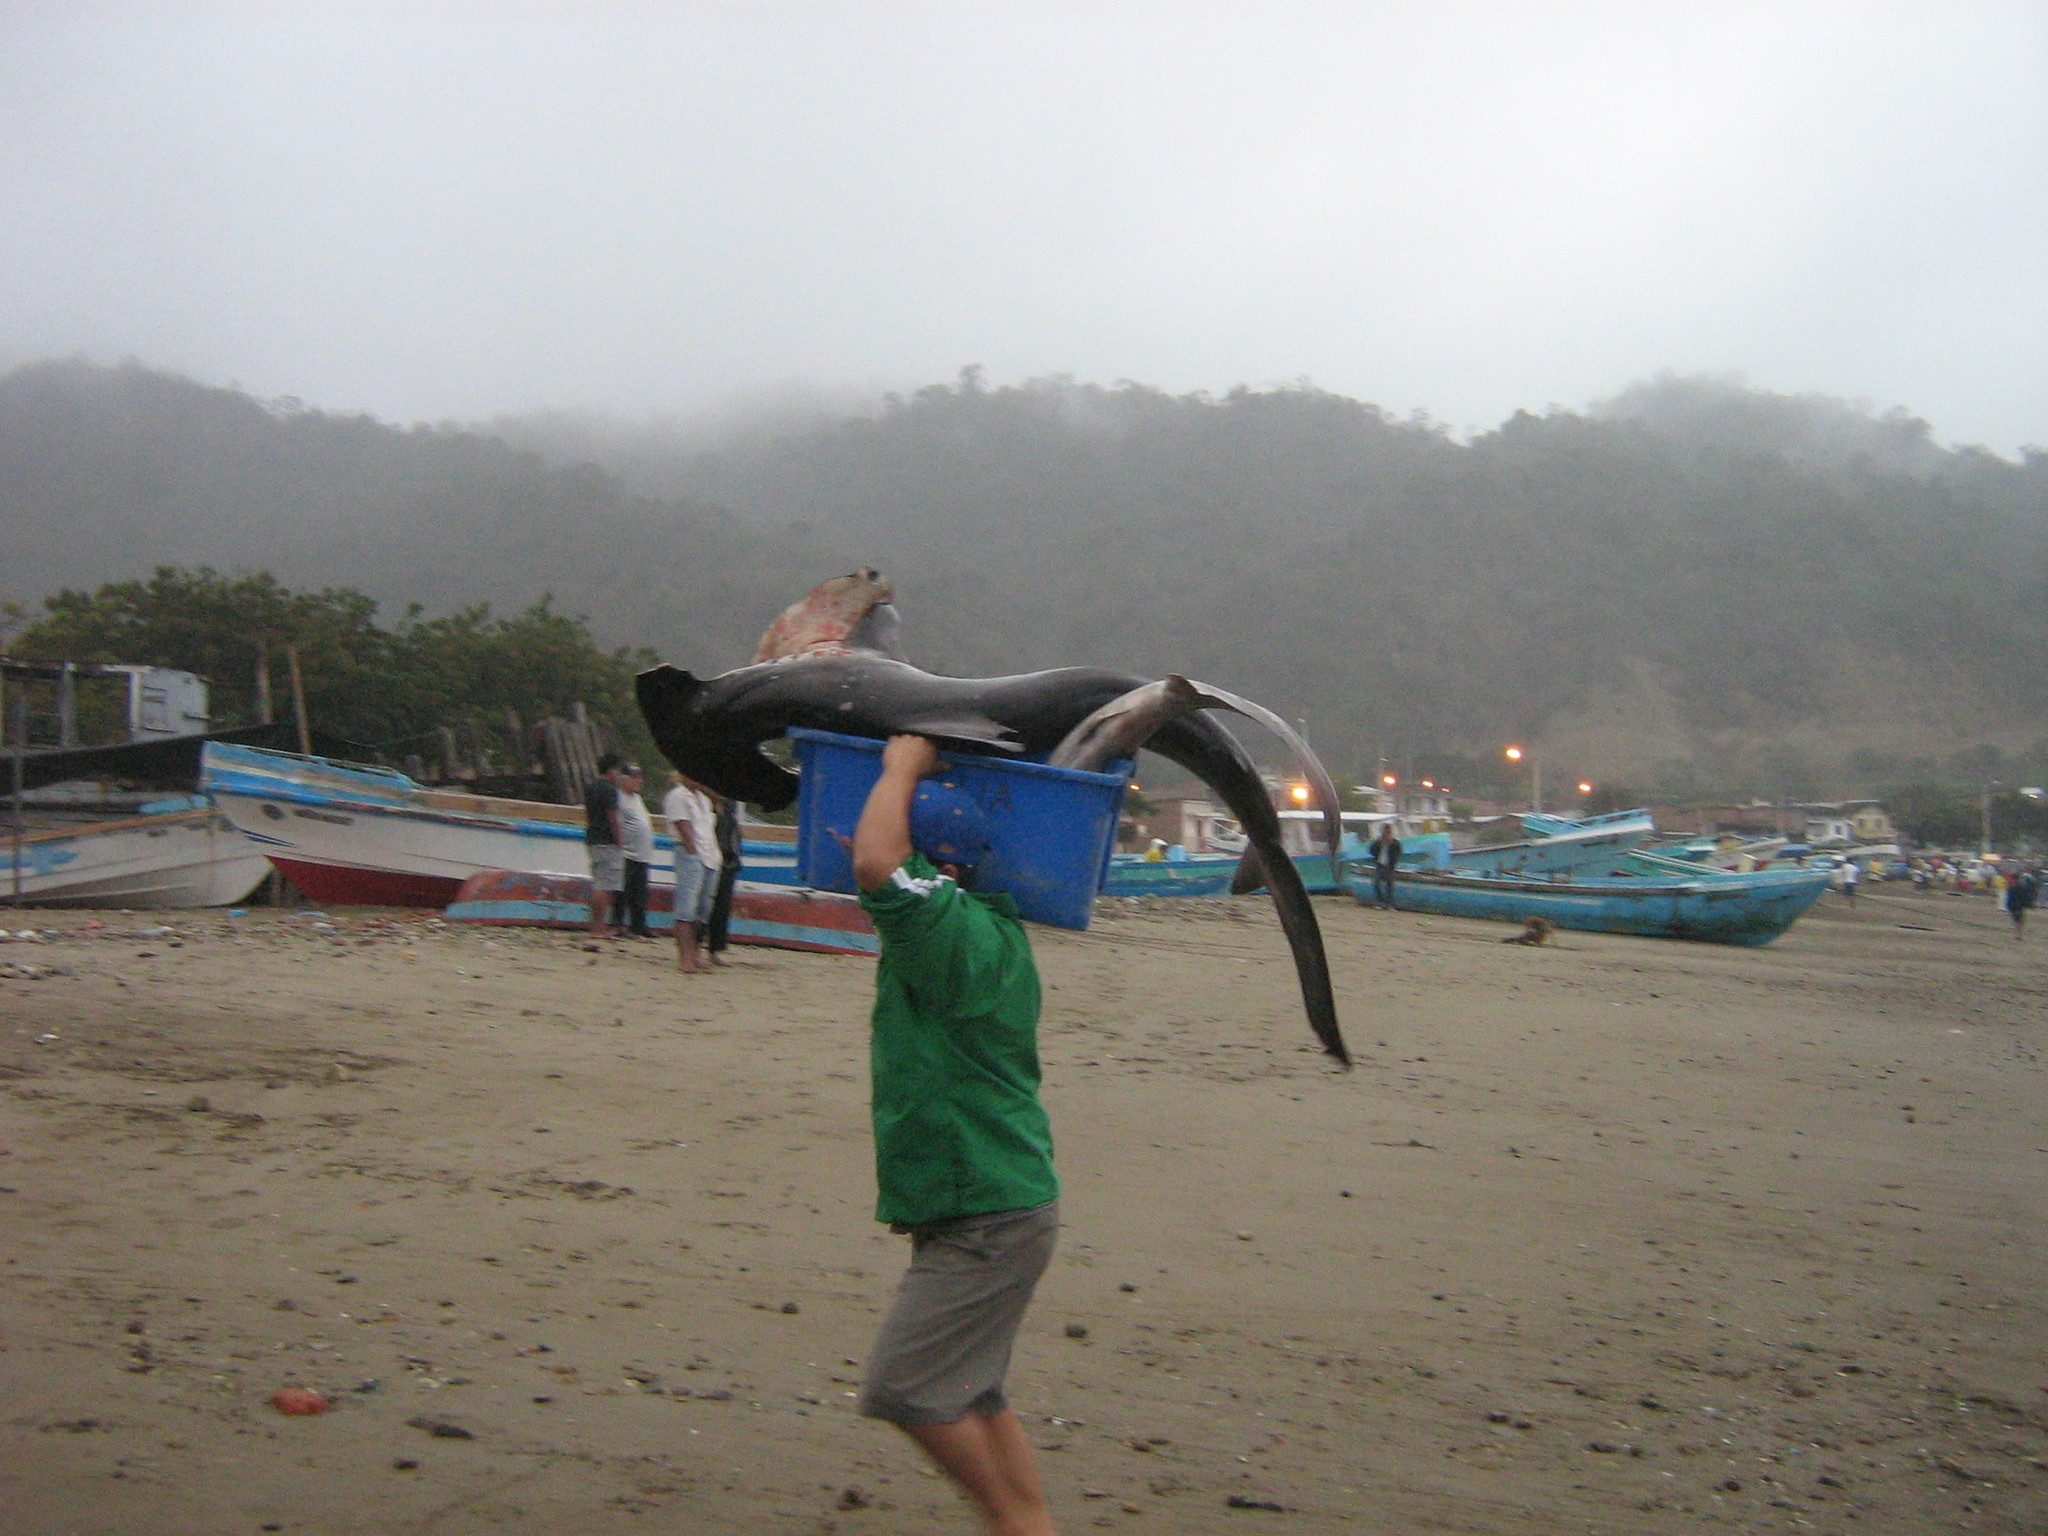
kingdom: Animalia
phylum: Chordata
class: Elasmobranchii
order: Carcharhiniformes
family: Sphyrnidae
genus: Sphyrna
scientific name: Sphyrna zygaena
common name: Smooth hammerhead
